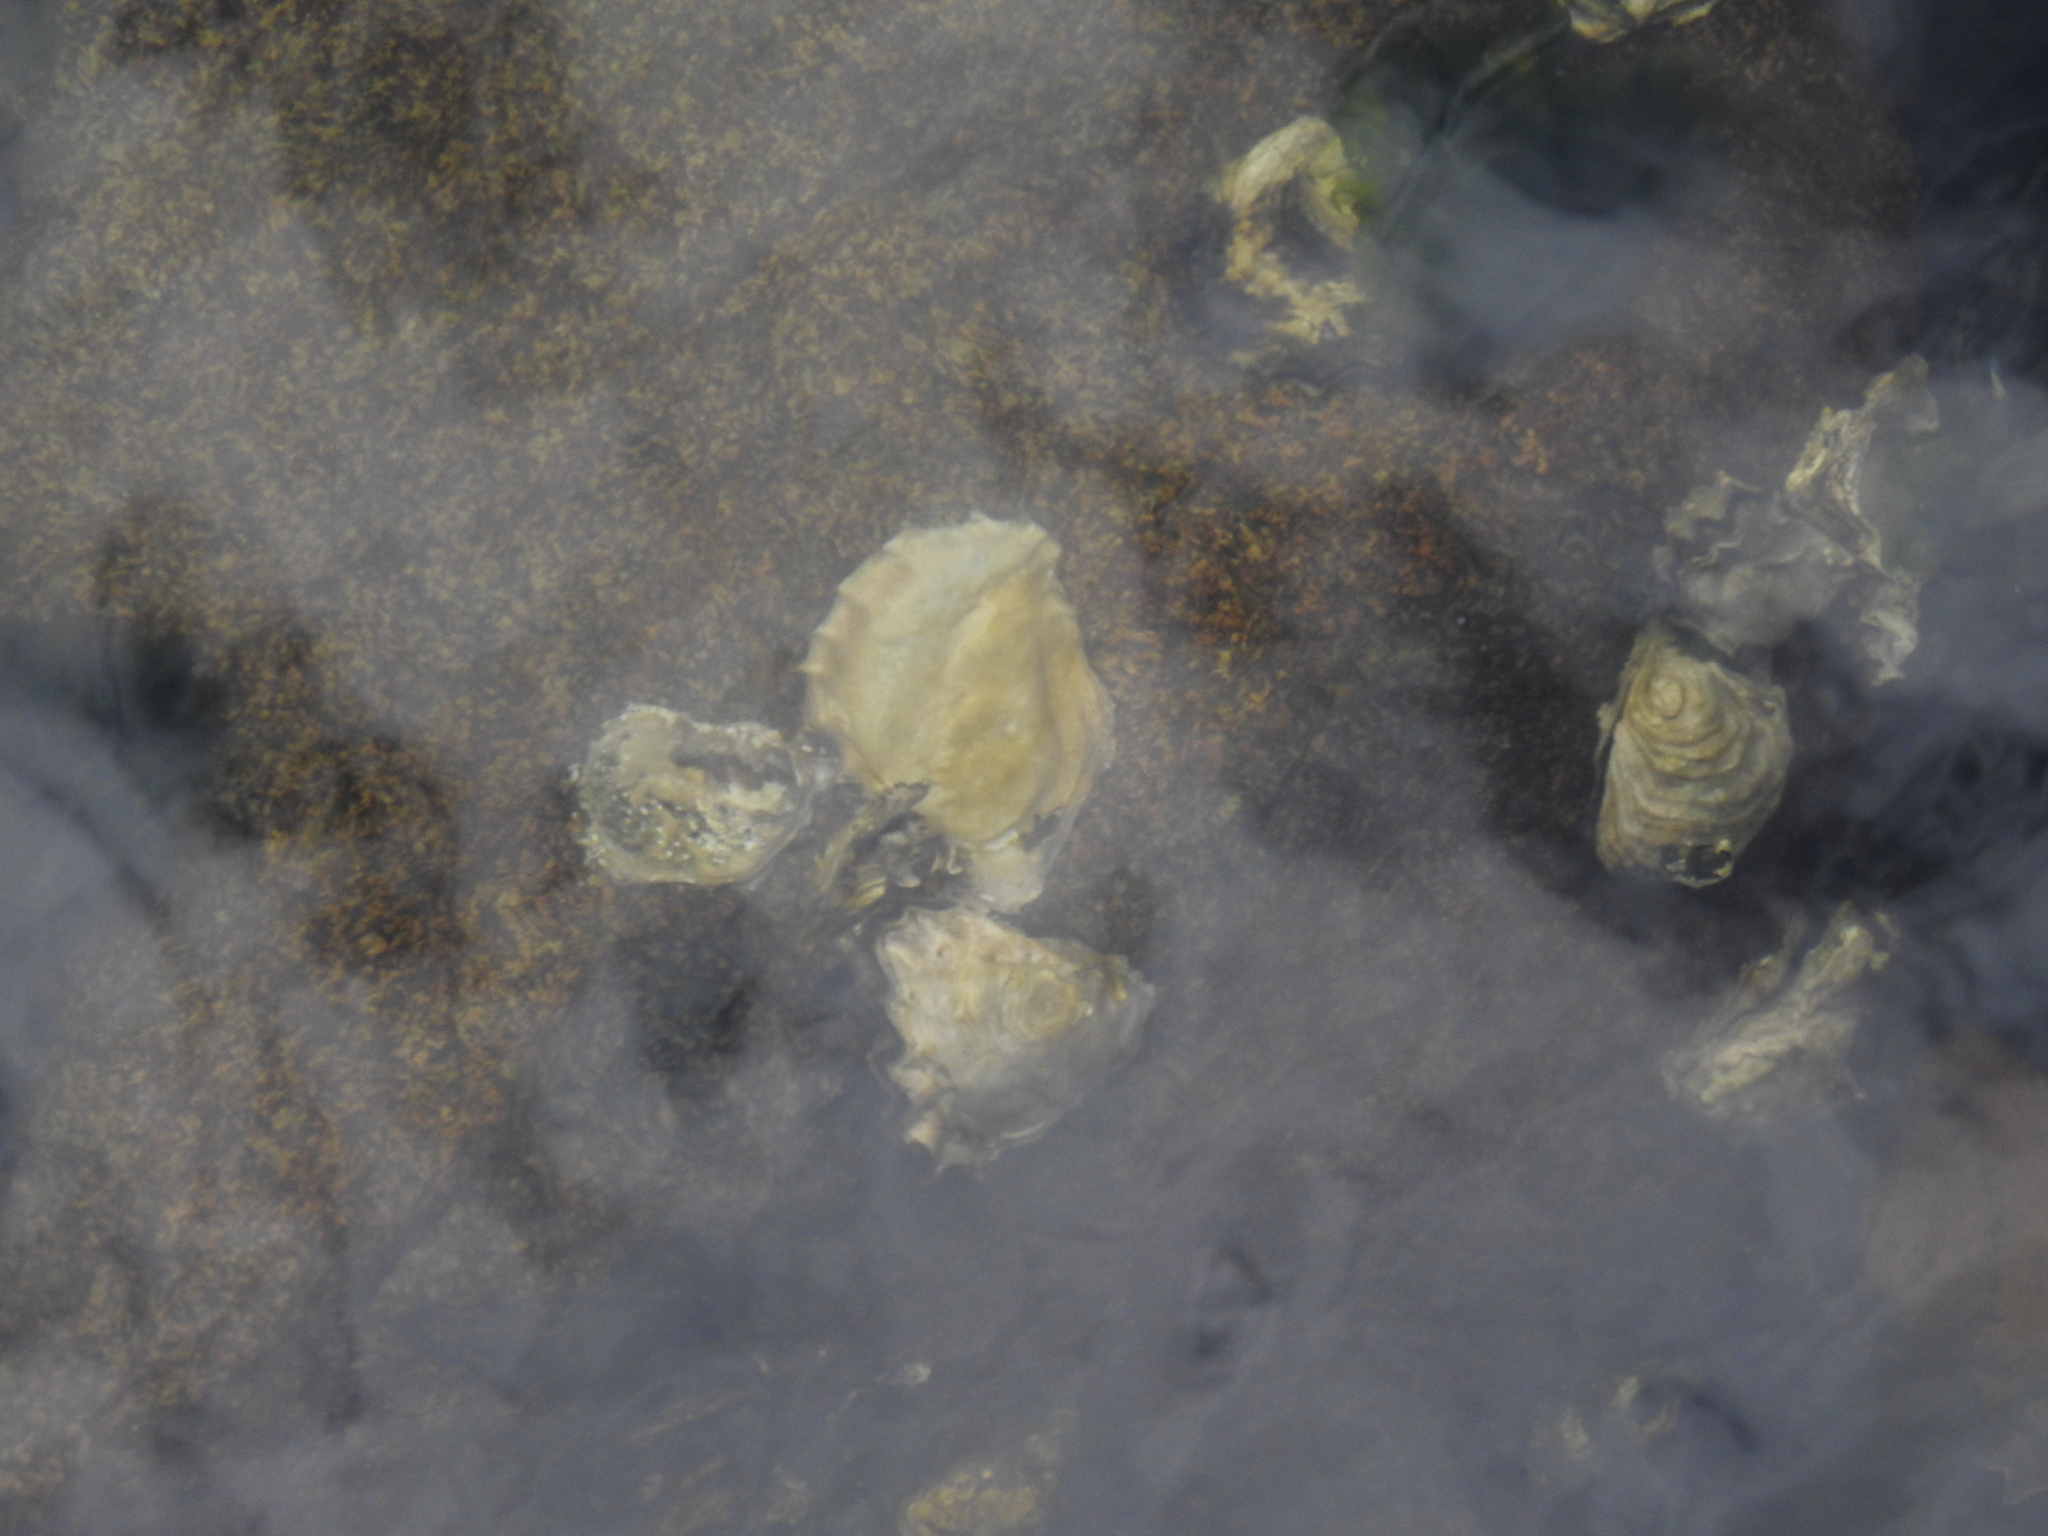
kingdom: Animalia
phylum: Mollusca
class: Bivalvia
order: Ostreida
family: Ostreidae
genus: Magallana
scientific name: Magallana gigas
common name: Pacific oyster
